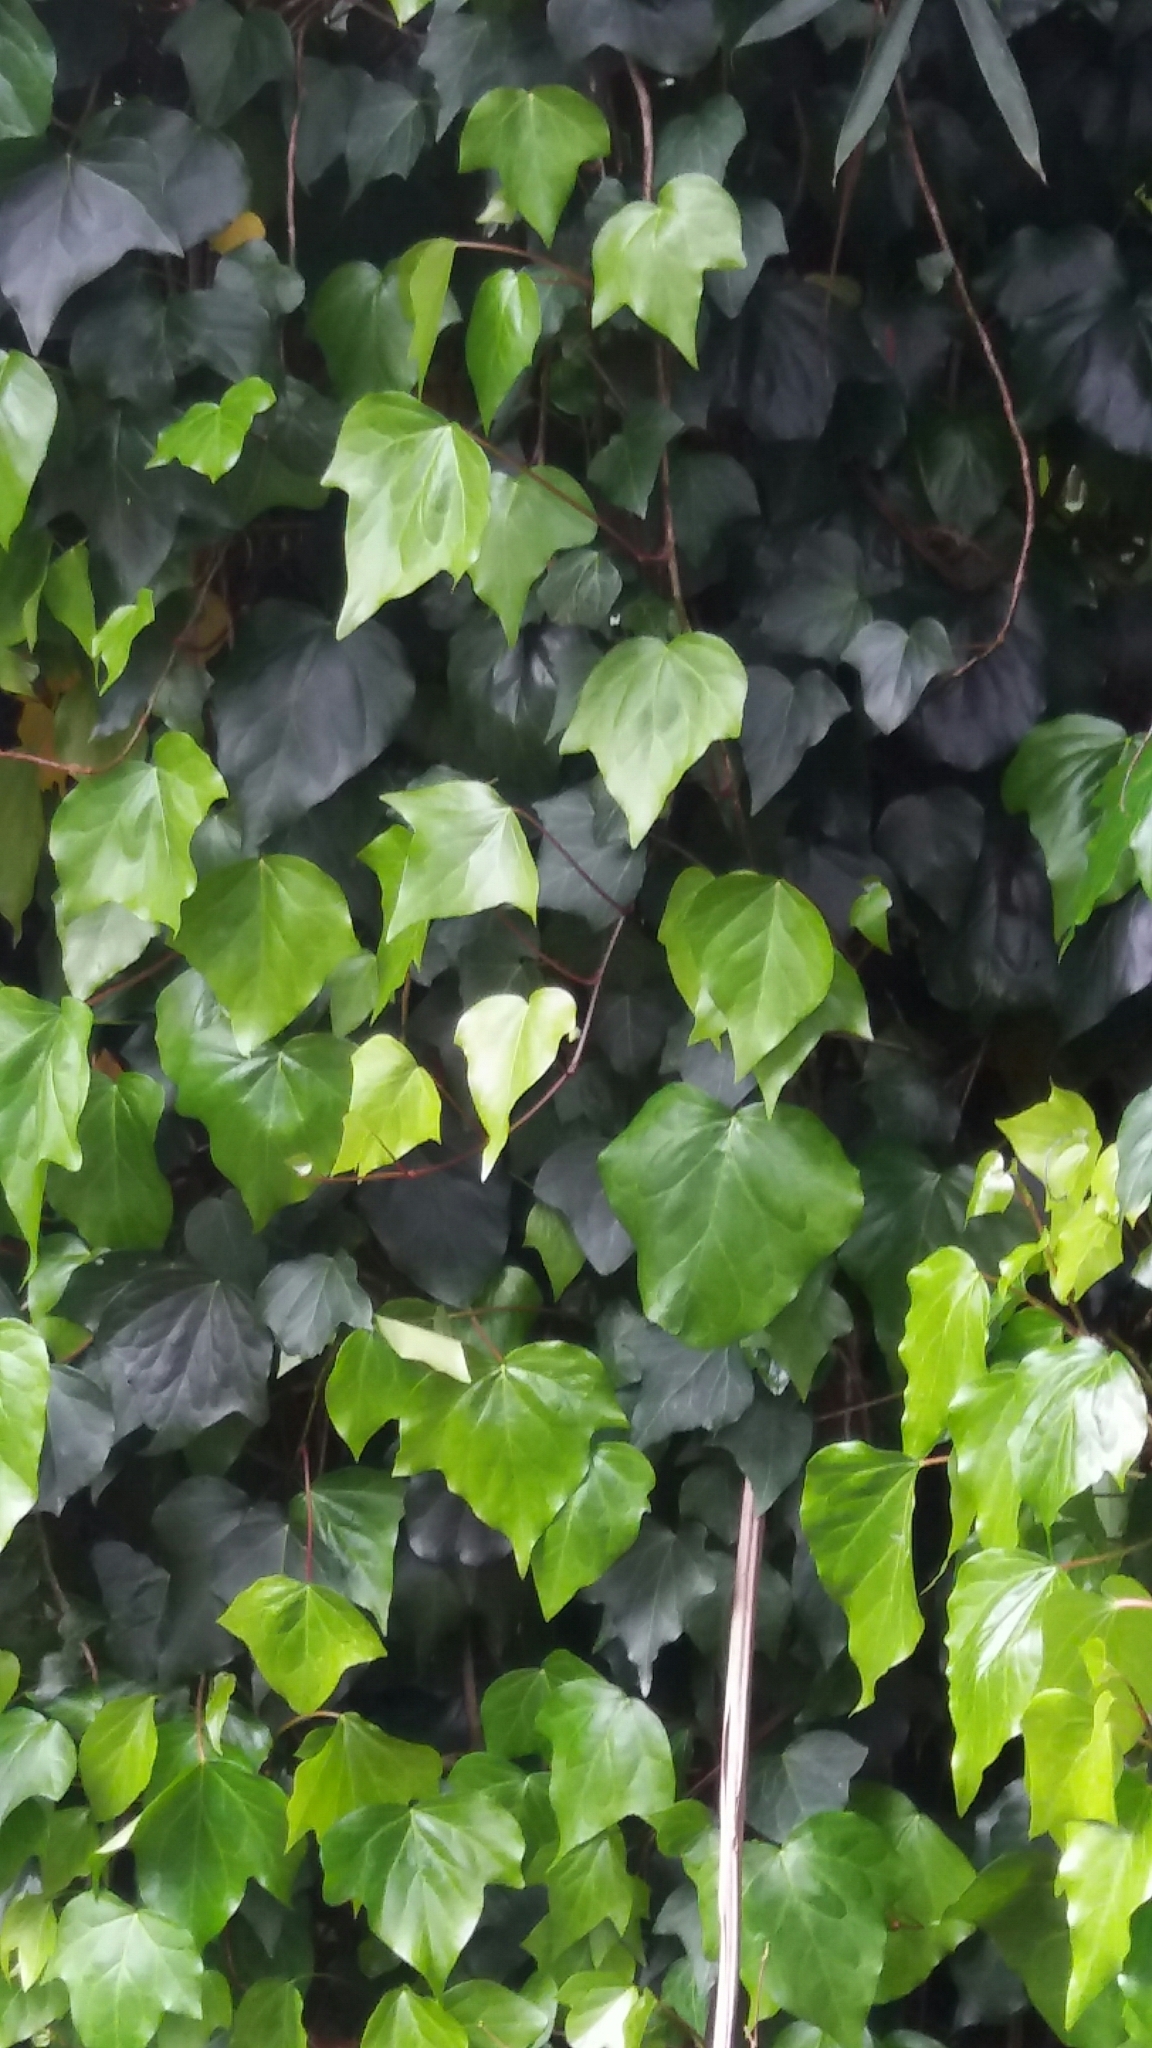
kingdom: Plantae
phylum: Tracheophyta
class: Magnoliopsida
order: Apiales
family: Araliaceae
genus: Hedera
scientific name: Hedera helix
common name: Ivy
